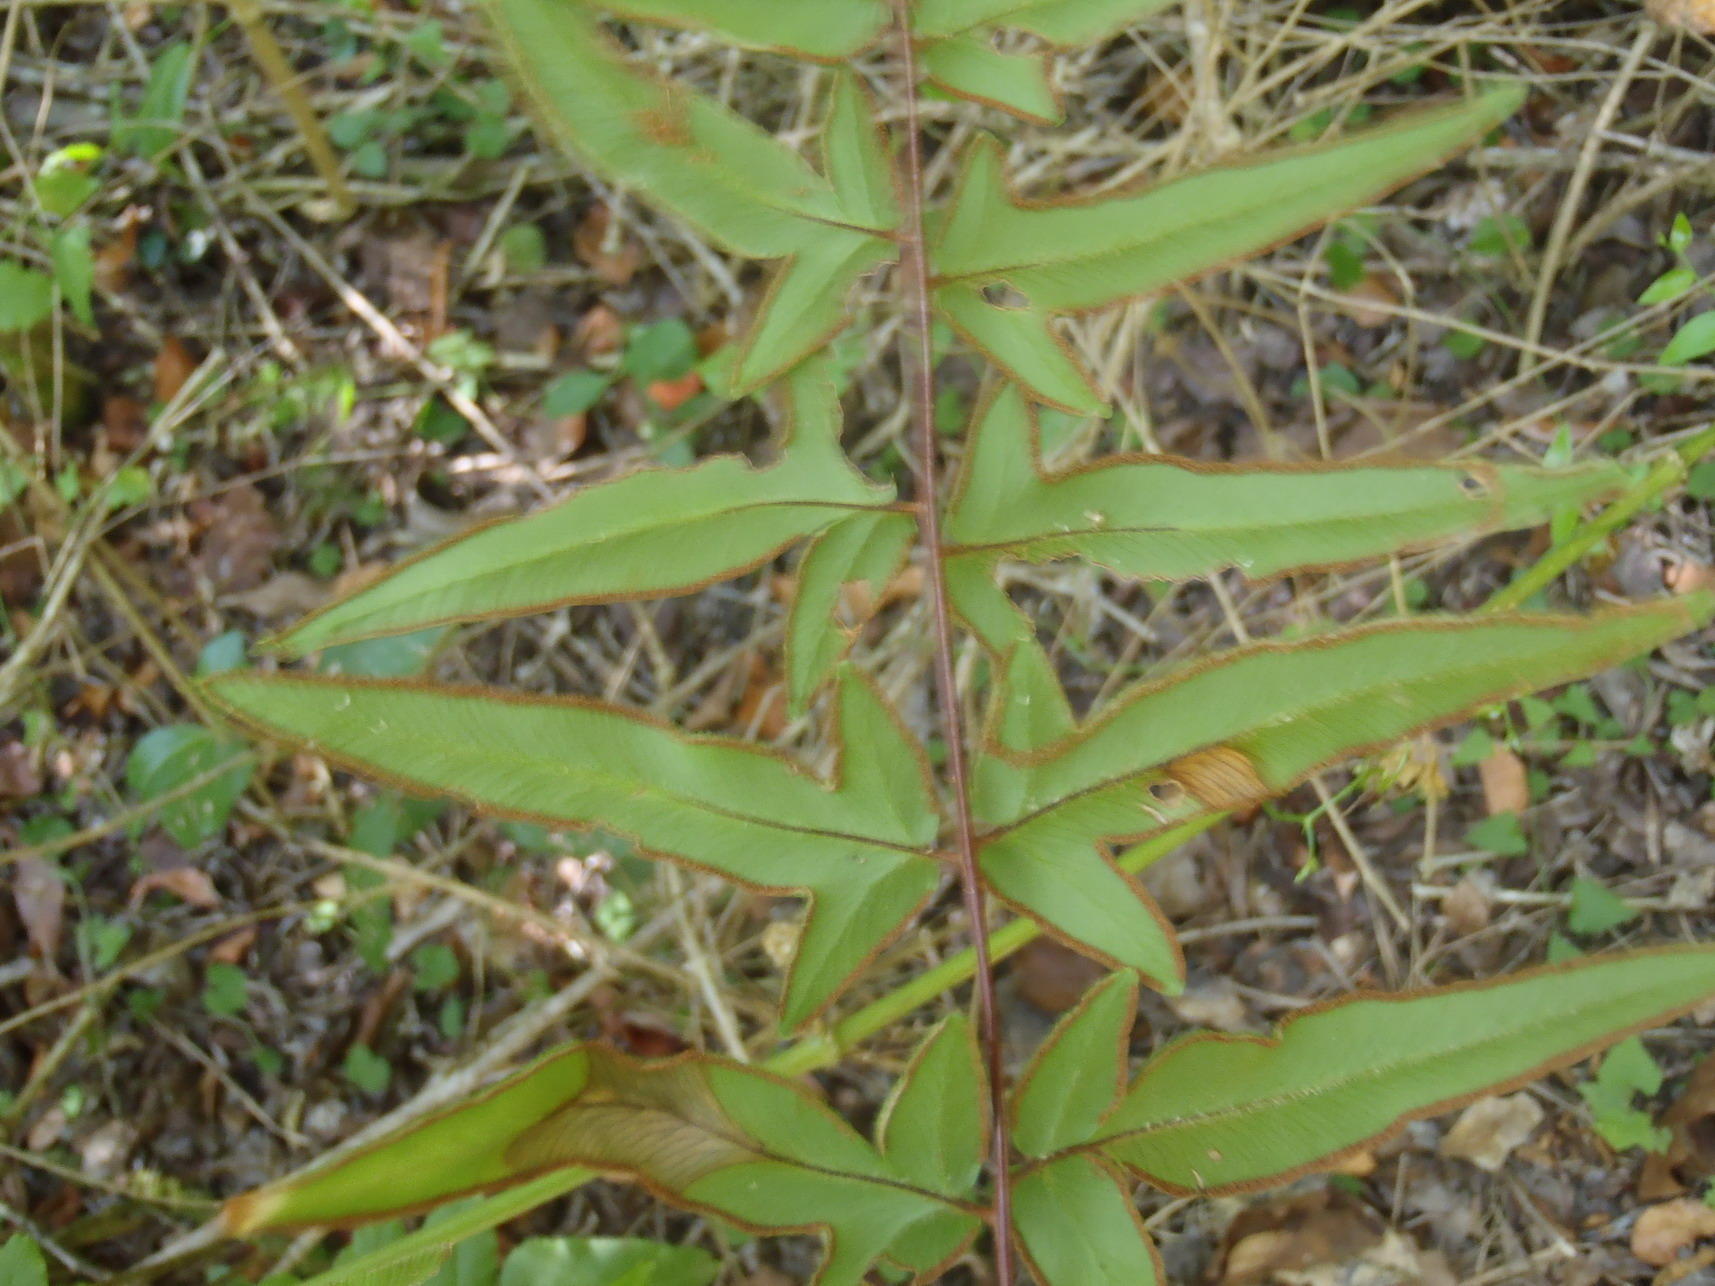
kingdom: Plantae
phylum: Tracheophyta
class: Polypodiopsida
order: Polypodiales
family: Pteridaceae
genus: Cheilanthes
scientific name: Cheilanthes viridis
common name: Green cliffbrake
